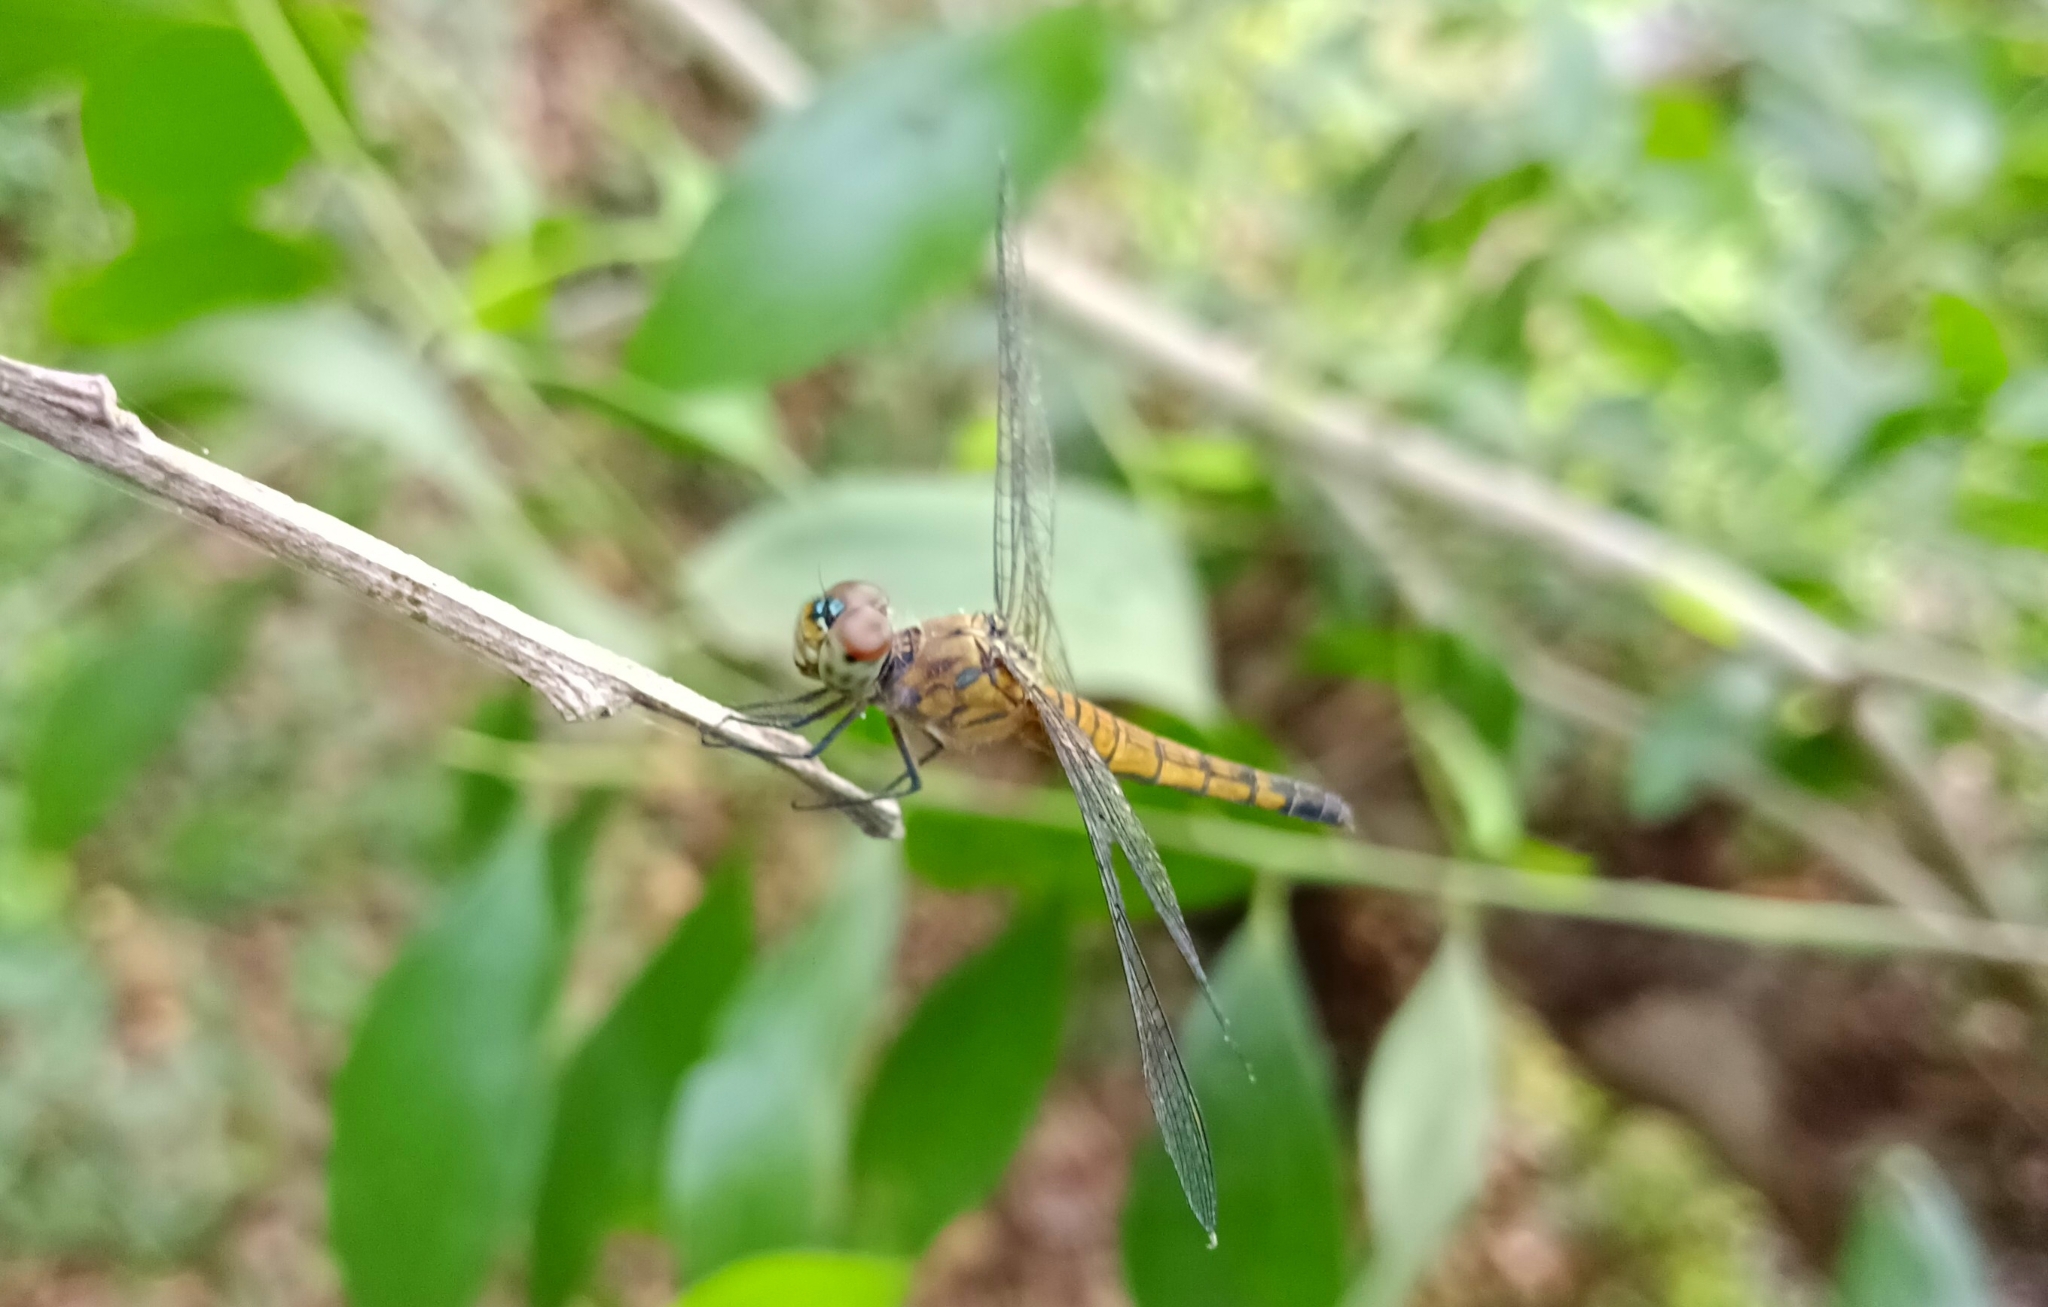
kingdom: Animalia
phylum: Arthropoda
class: Insecta
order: Odonata
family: Libellulidae
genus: Brachydiplax
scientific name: Brachydiplax chalybea
